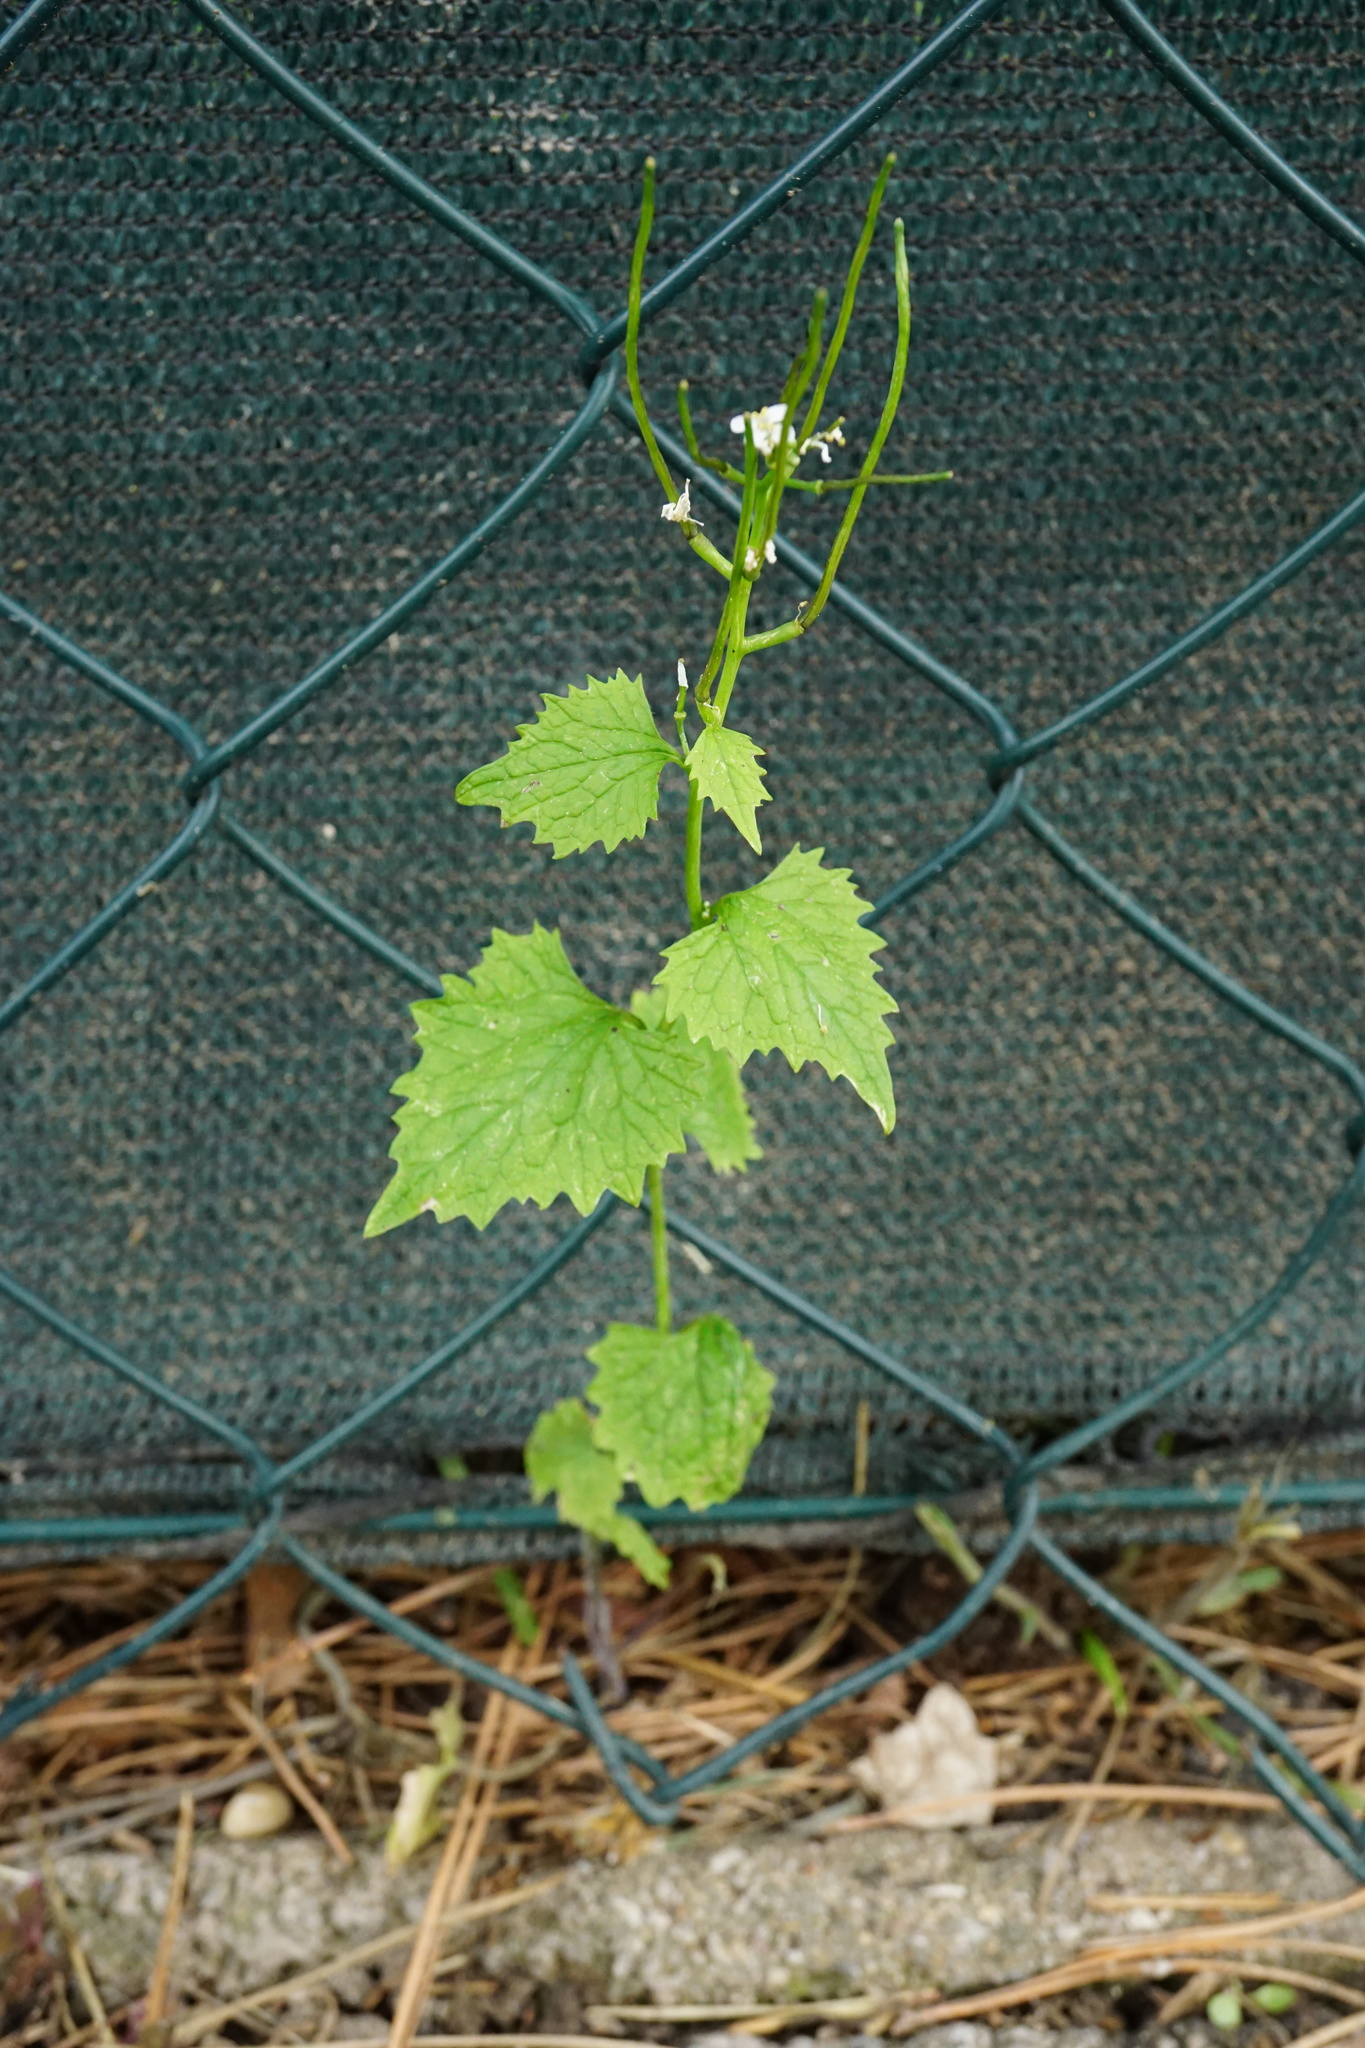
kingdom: Plantae
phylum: Tracheophyta
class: Magnoliopsida
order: Brassicales
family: Brassicaceae
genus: Alliaria
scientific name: Alliaria petiolata
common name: Garlic mustard
